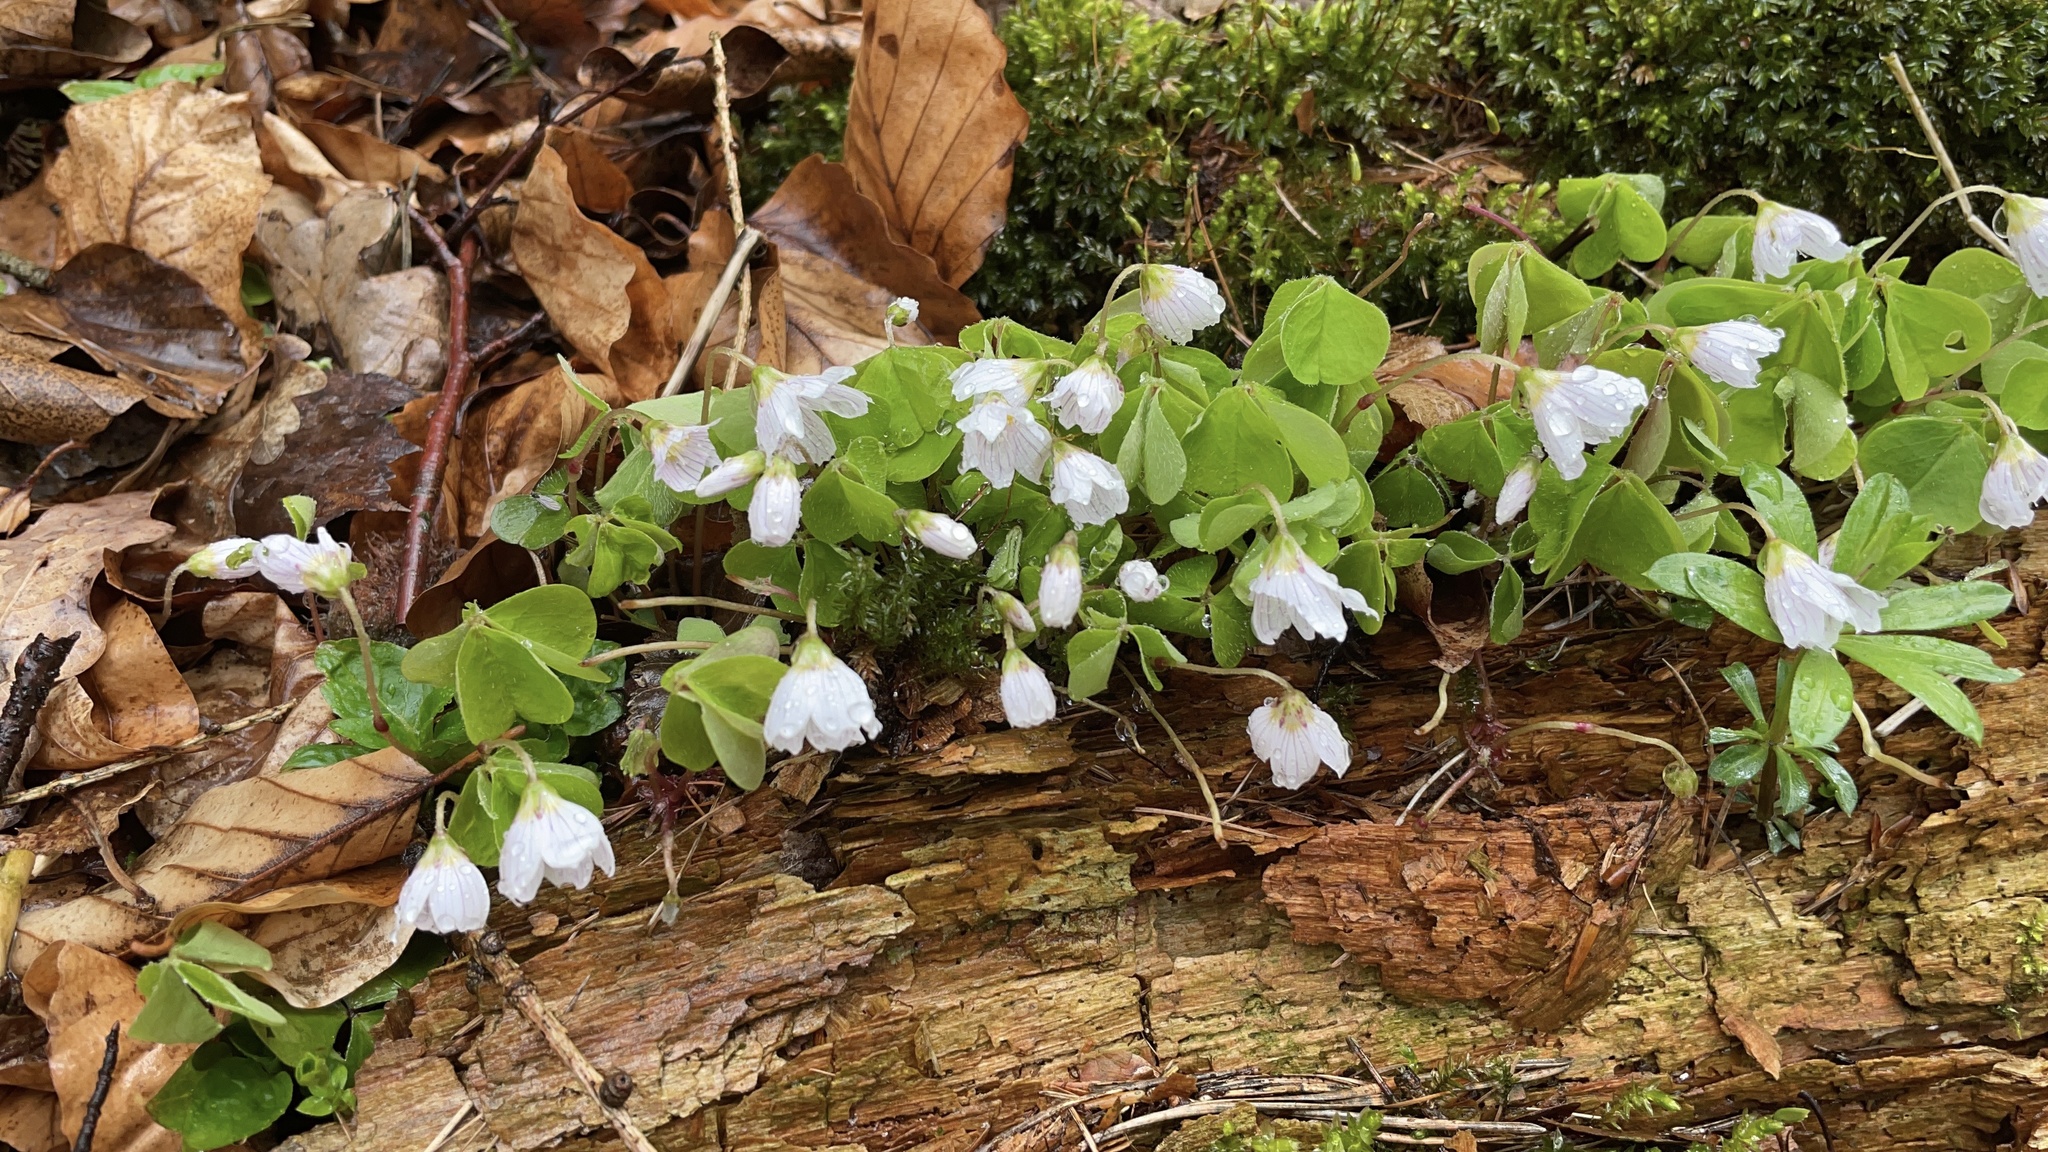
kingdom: Plantae
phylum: Tracheophyta
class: Magnoliopsida
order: Oxalidales
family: Oxalidaceae
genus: Oxalis
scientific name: Oxalis acetosella
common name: Wood-sorrel
